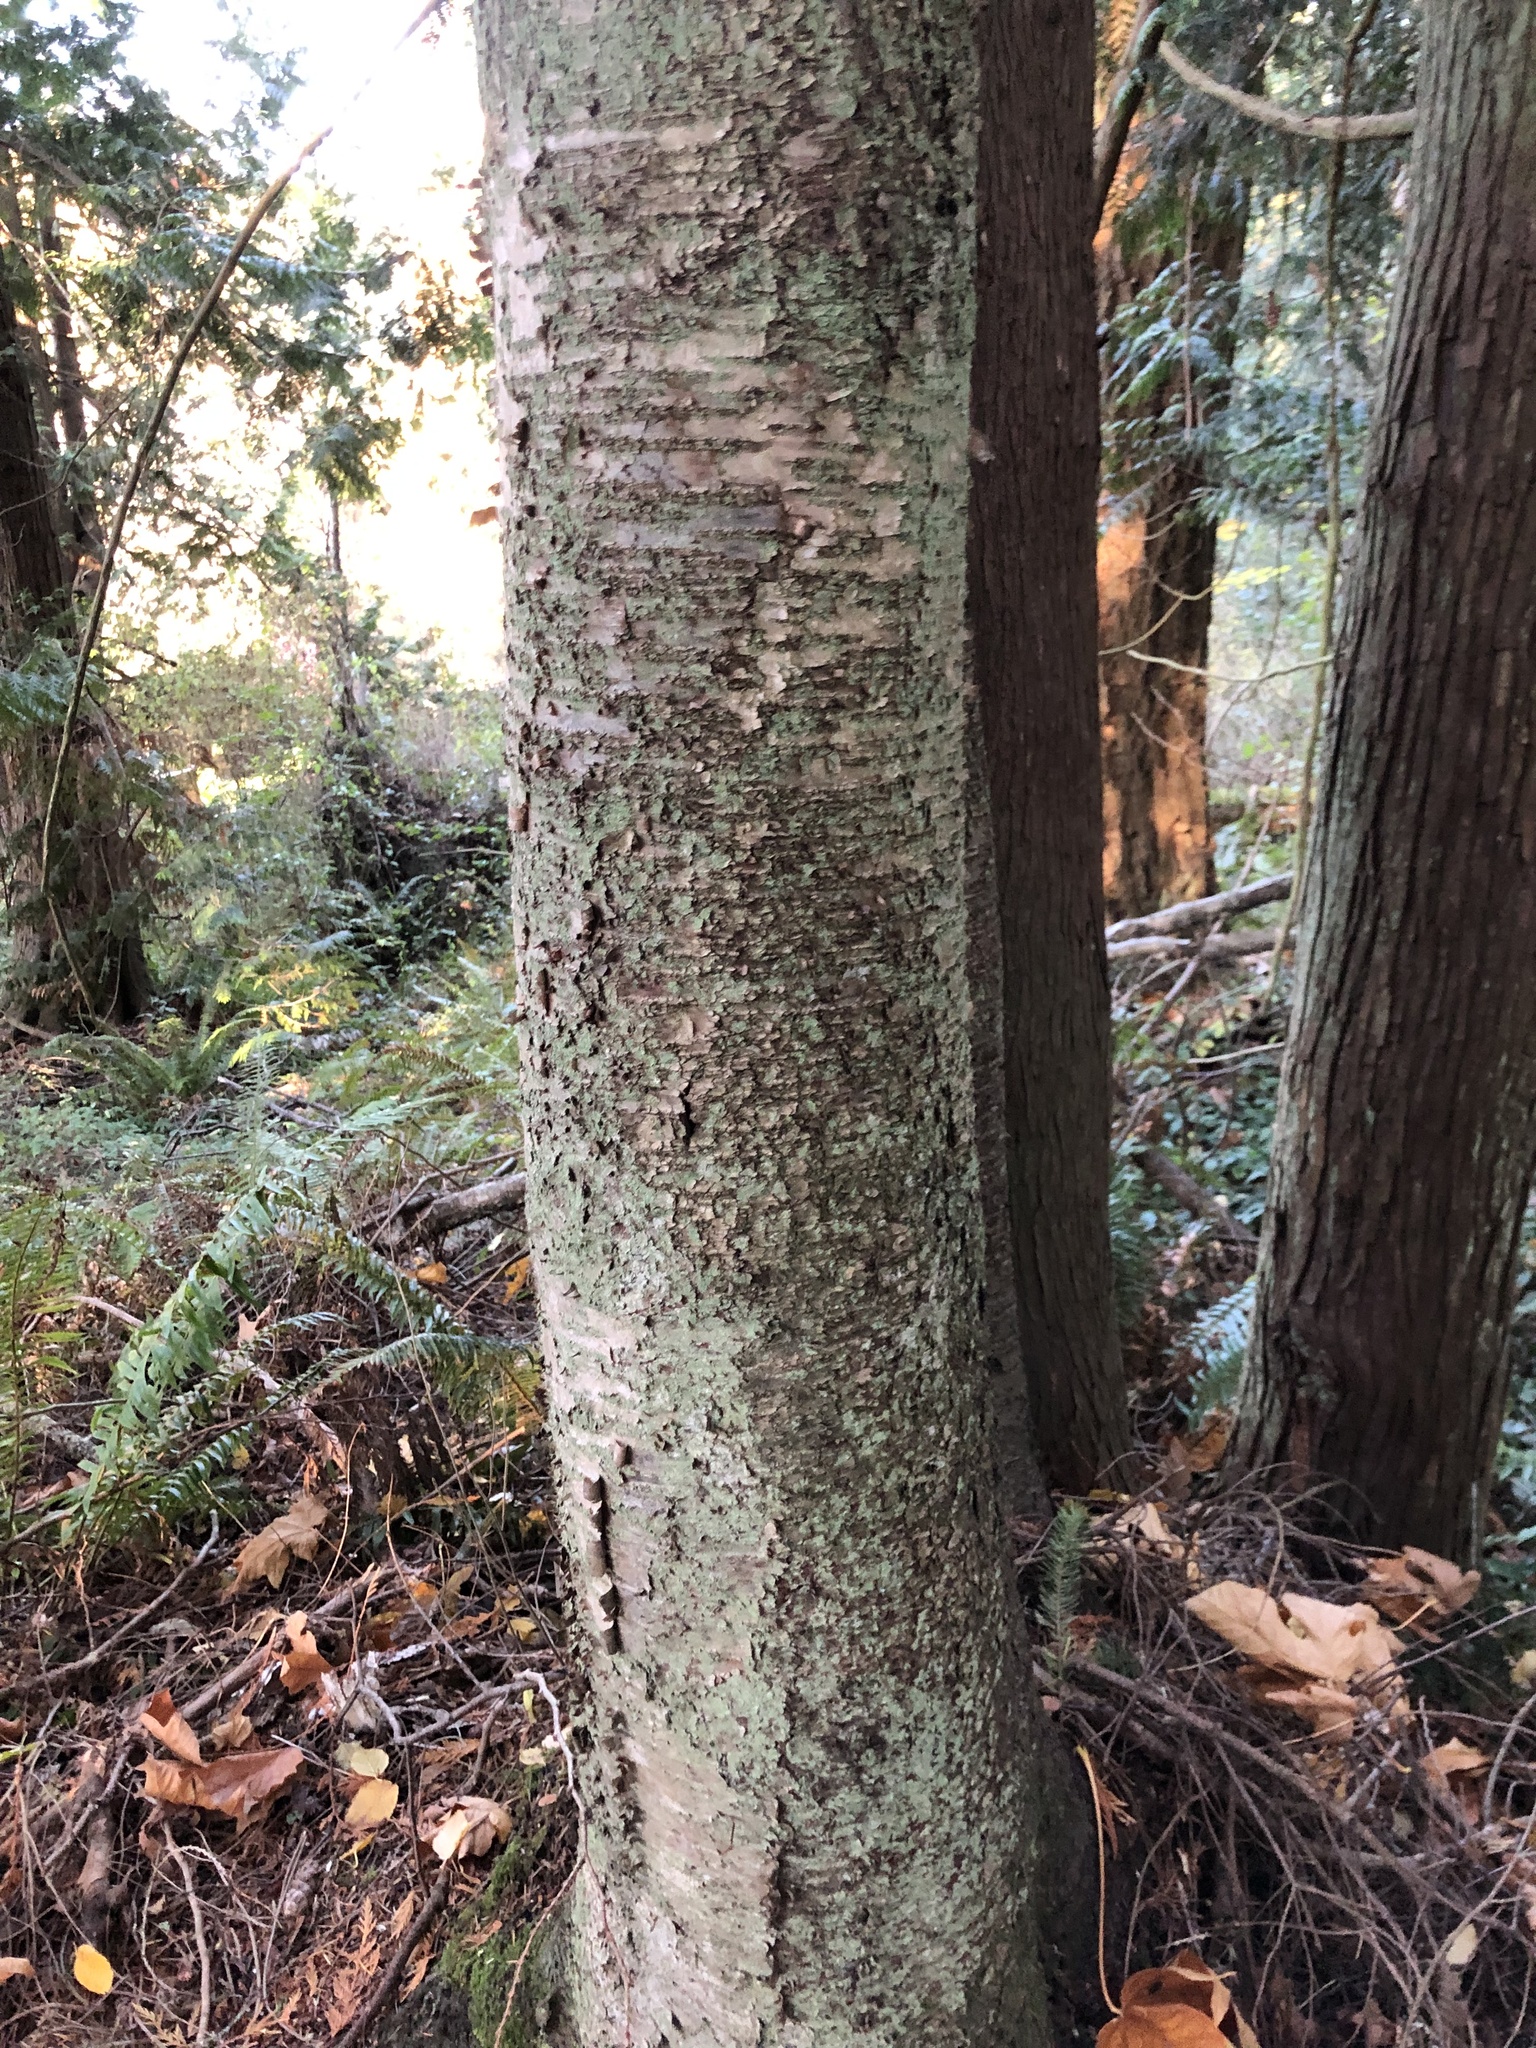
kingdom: Plantae
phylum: Tracheophyta
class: Magnoliopsida
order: Fagales
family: Betulaceae
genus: Betula
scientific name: Betula papyrifera
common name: Paper birch
